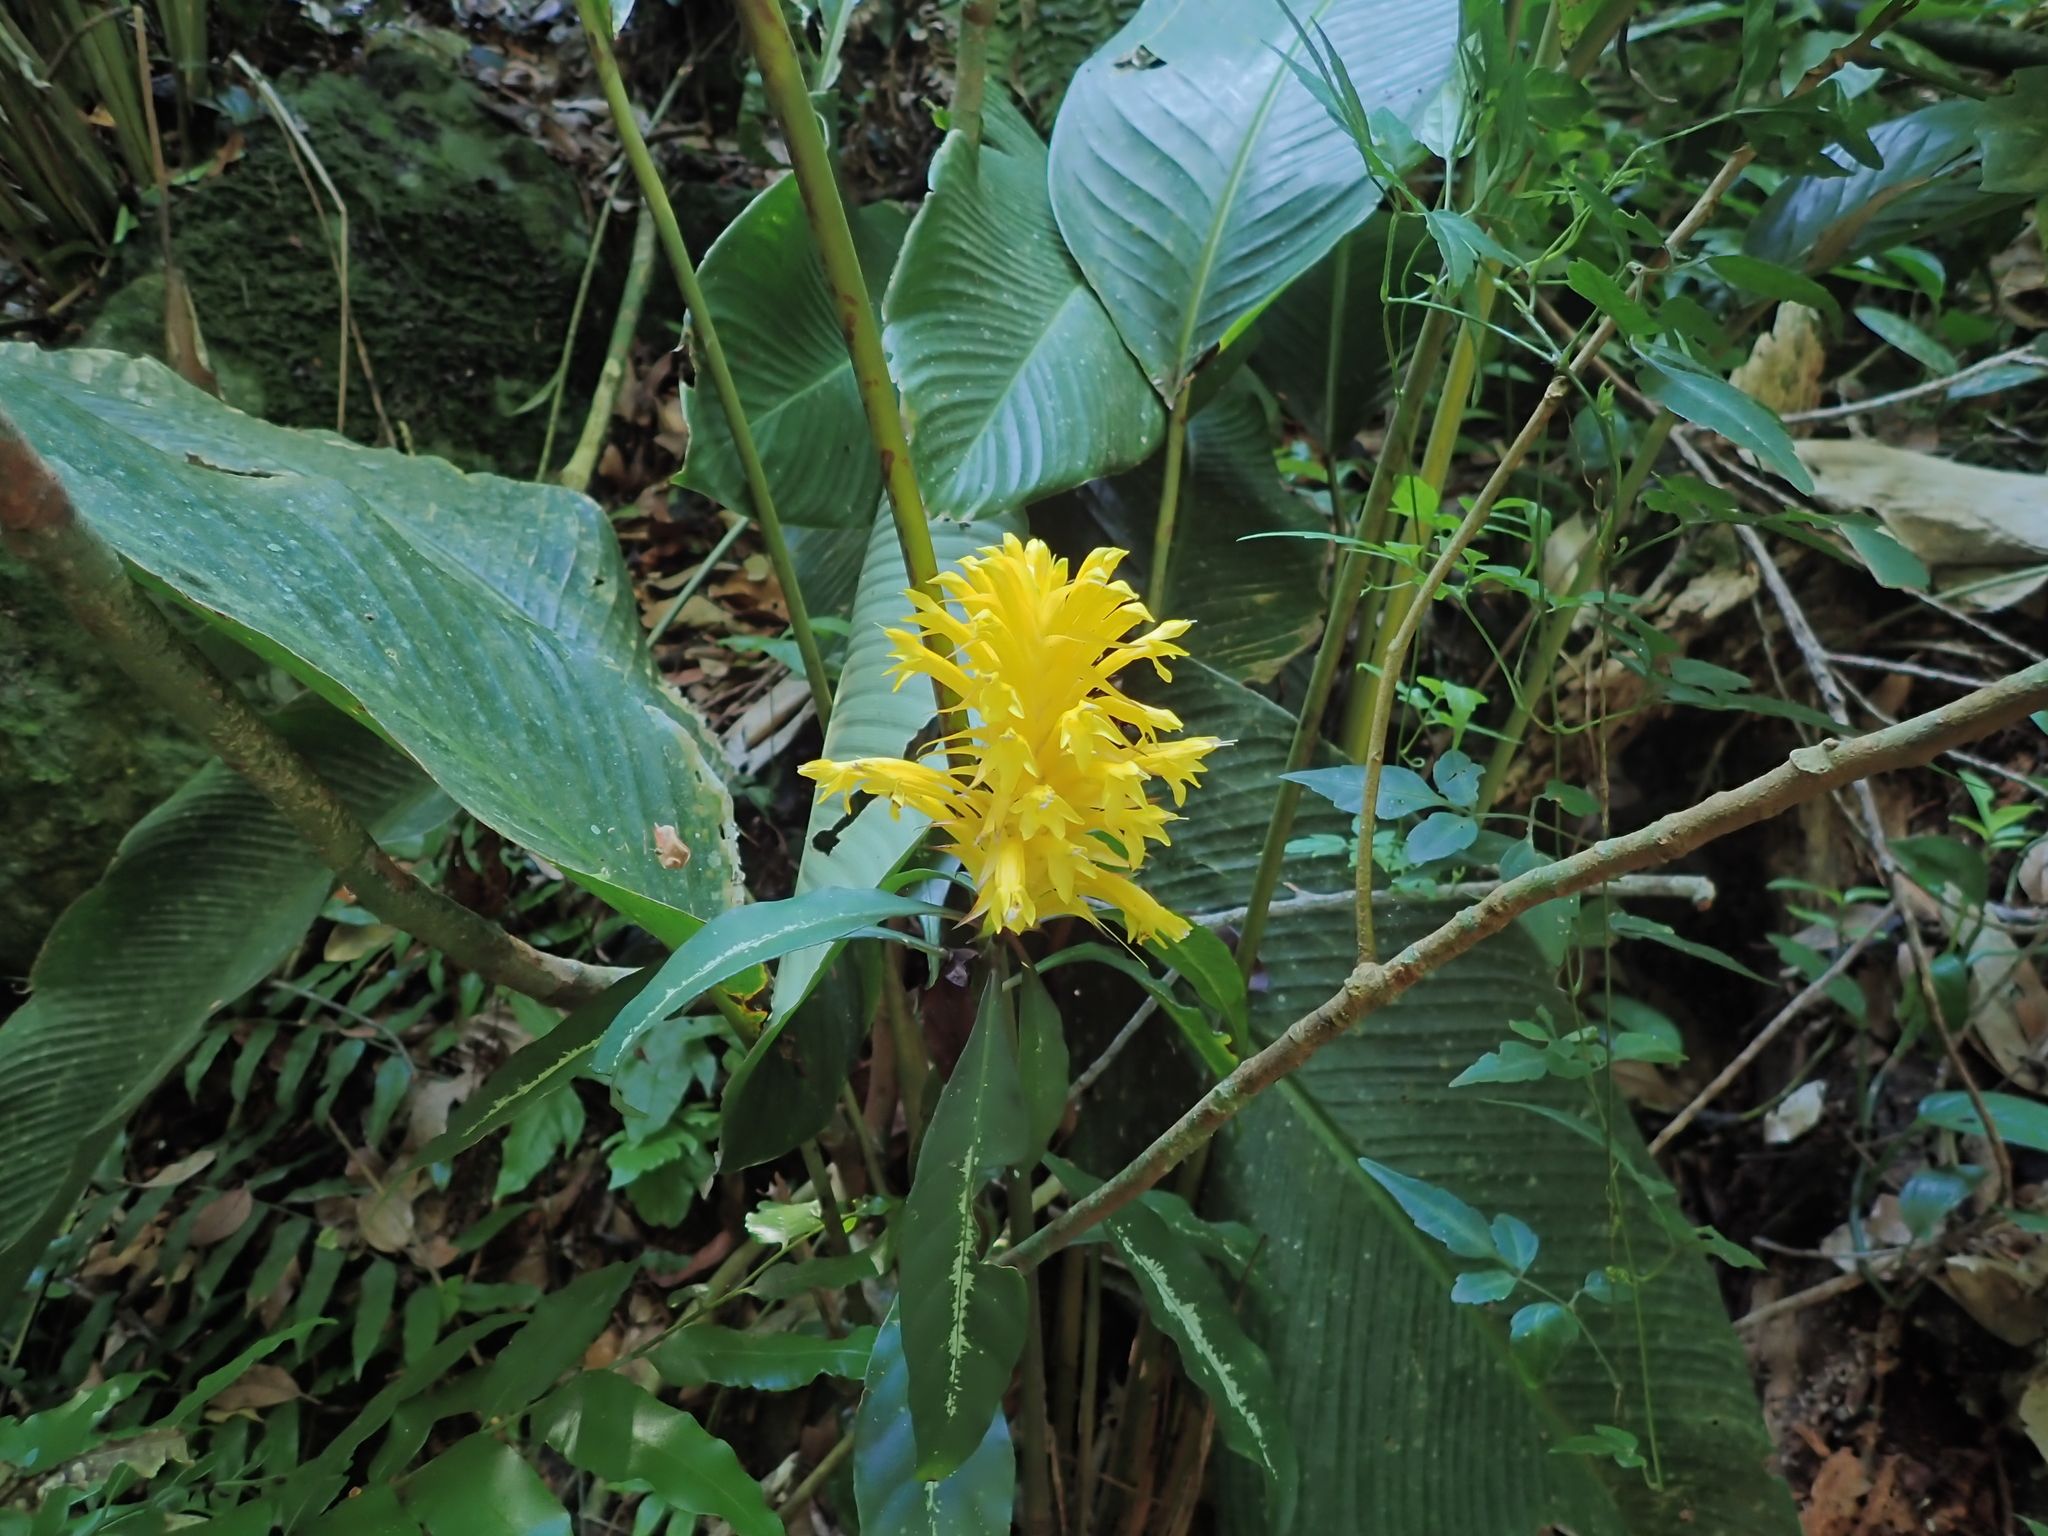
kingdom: Plantae
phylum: Tracheophyta
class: Magnoliopsida
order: Lamiales
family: Acanthaceae
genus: Aphelandra
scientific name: Aphelandra chamissoniana
